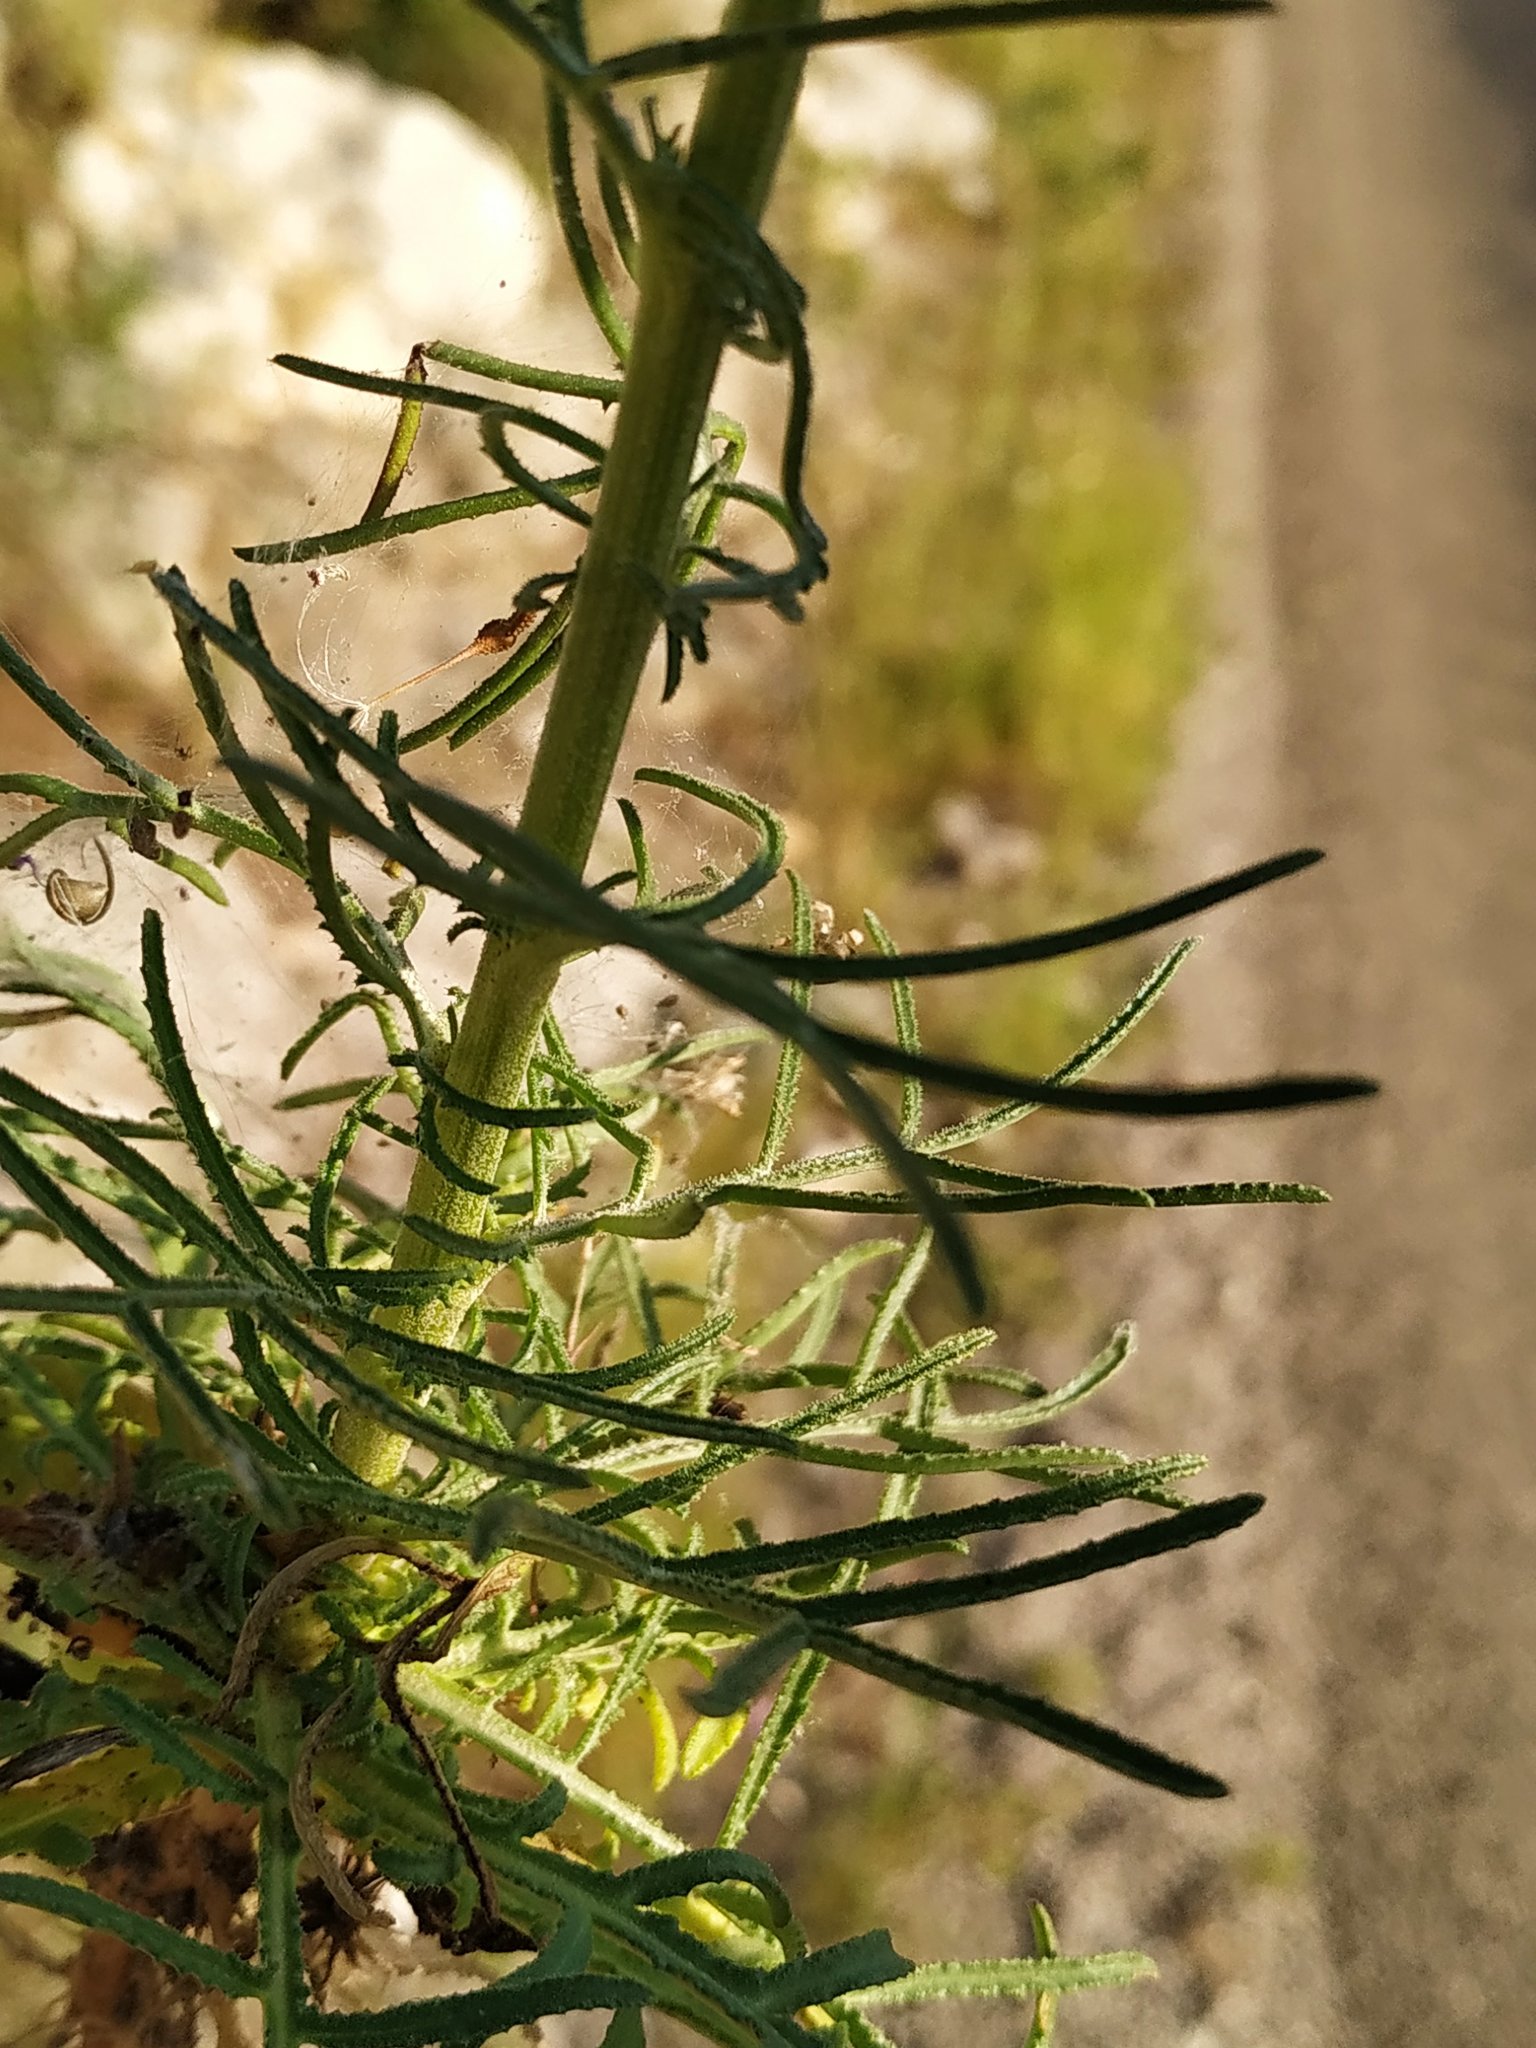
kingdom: Plantae
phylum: Tracheophyta
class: Magnoliopsida
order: Asterales
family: Asteraceae
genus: Crupina
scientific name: Crupina vulgaris
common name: Common crupina
